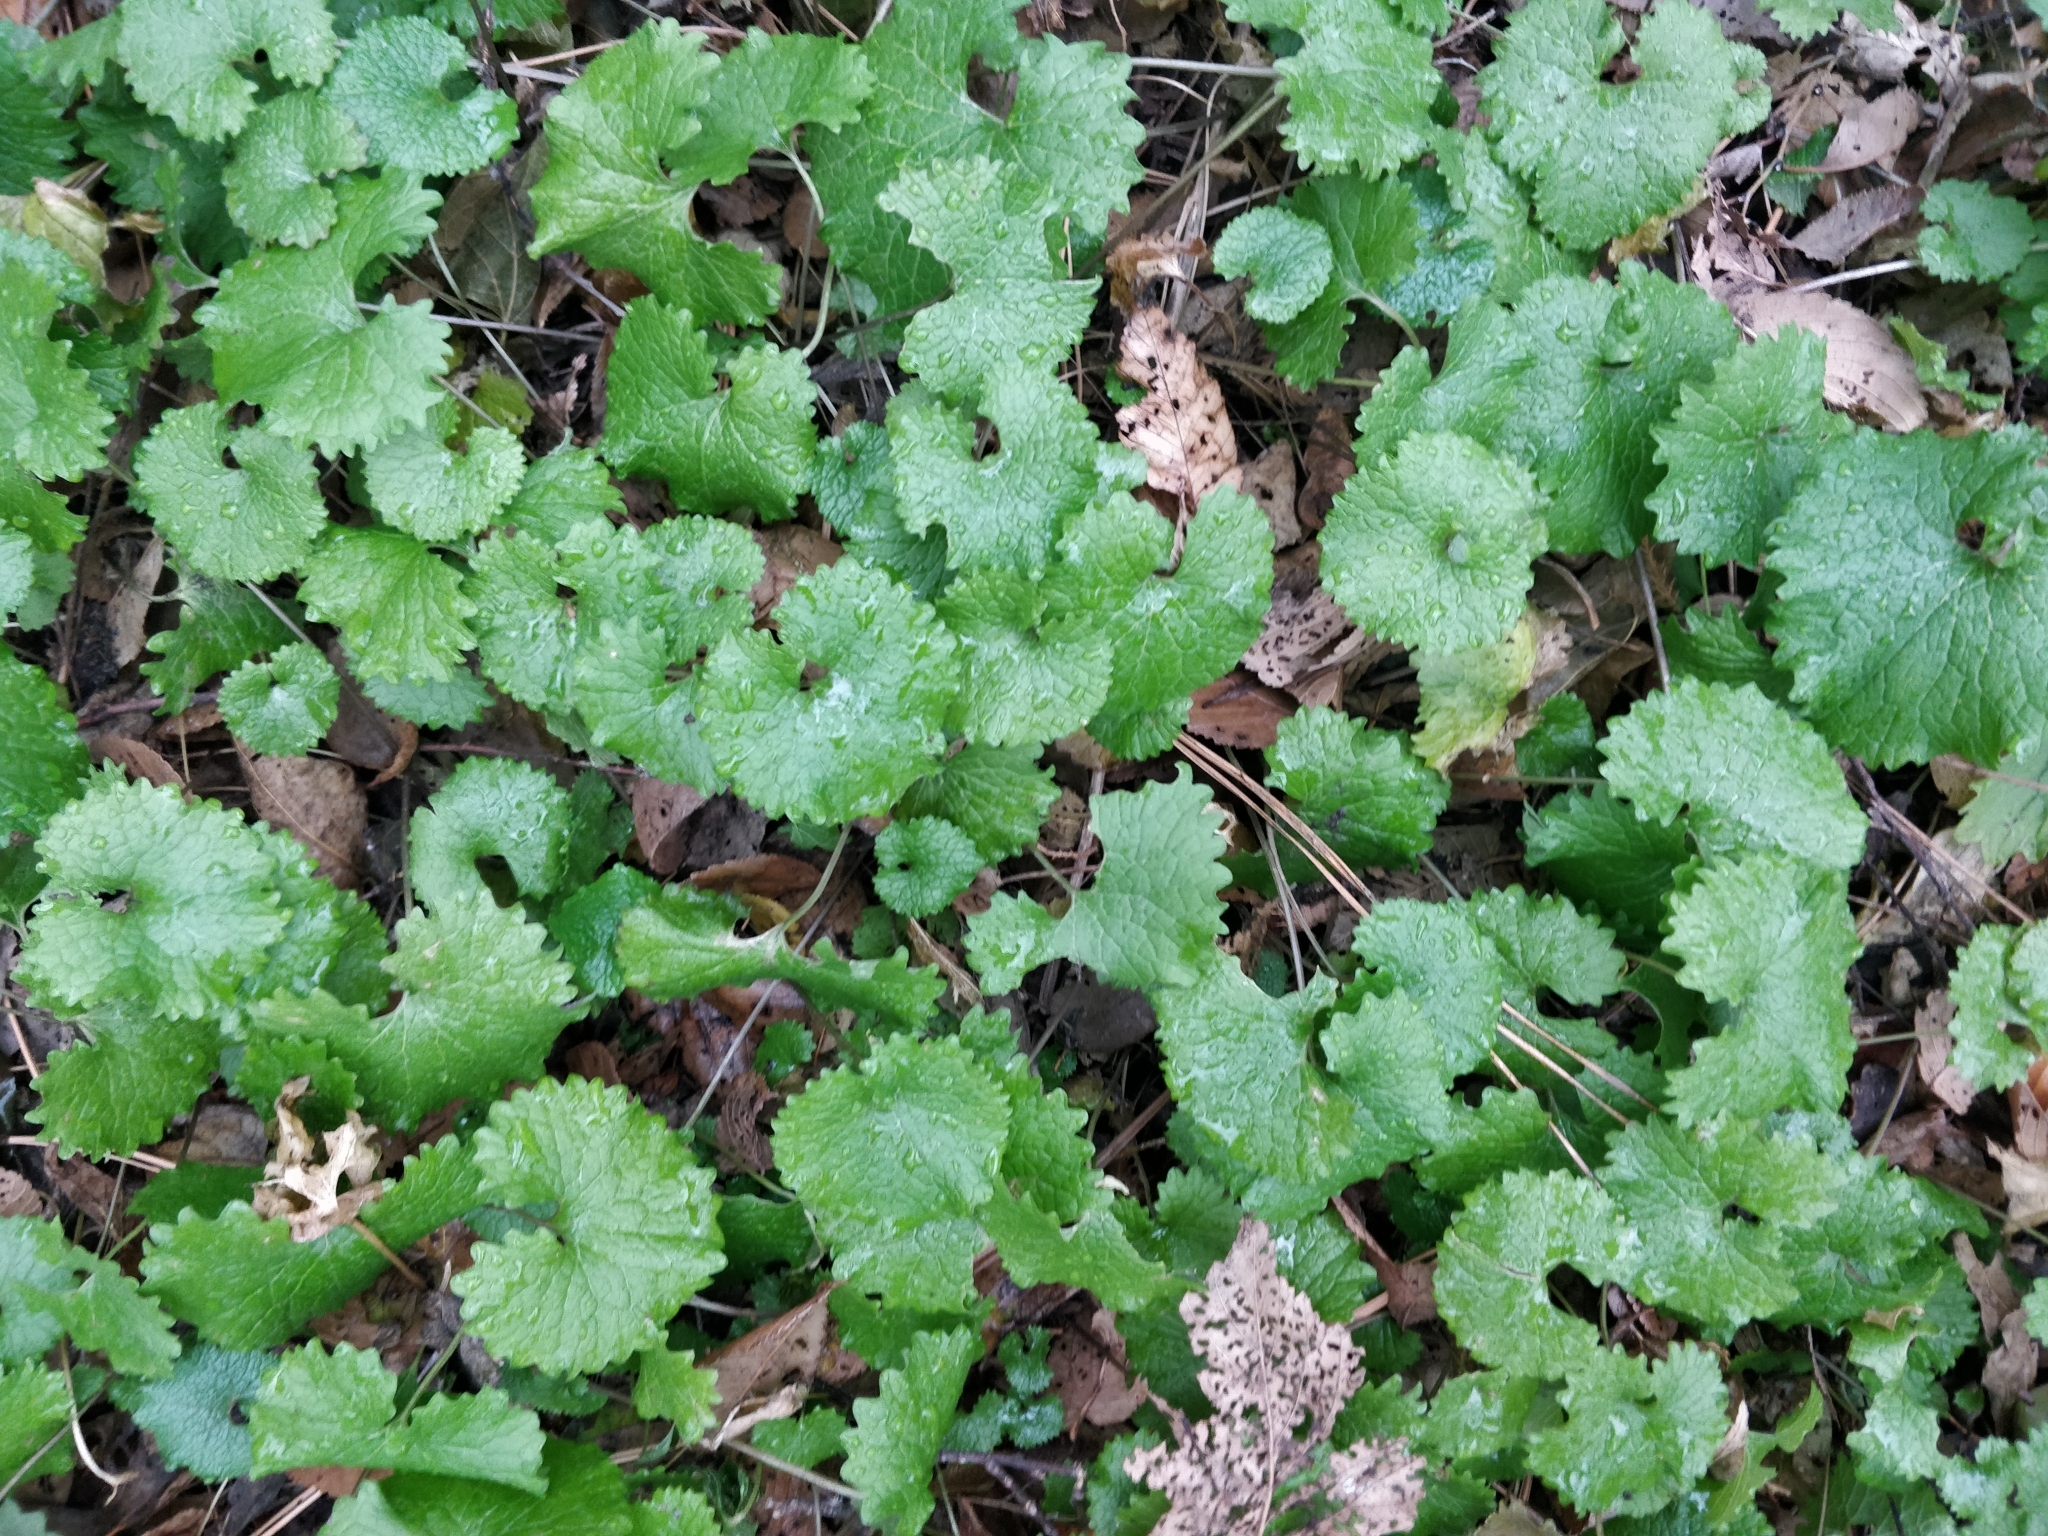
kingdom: Plantae
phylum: Tracheophyta
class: Magnoliopsida
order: Brassicales
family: Brassicaceae
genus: Alliaria
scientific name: Alliaria petiolata
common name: Garlic mustard
